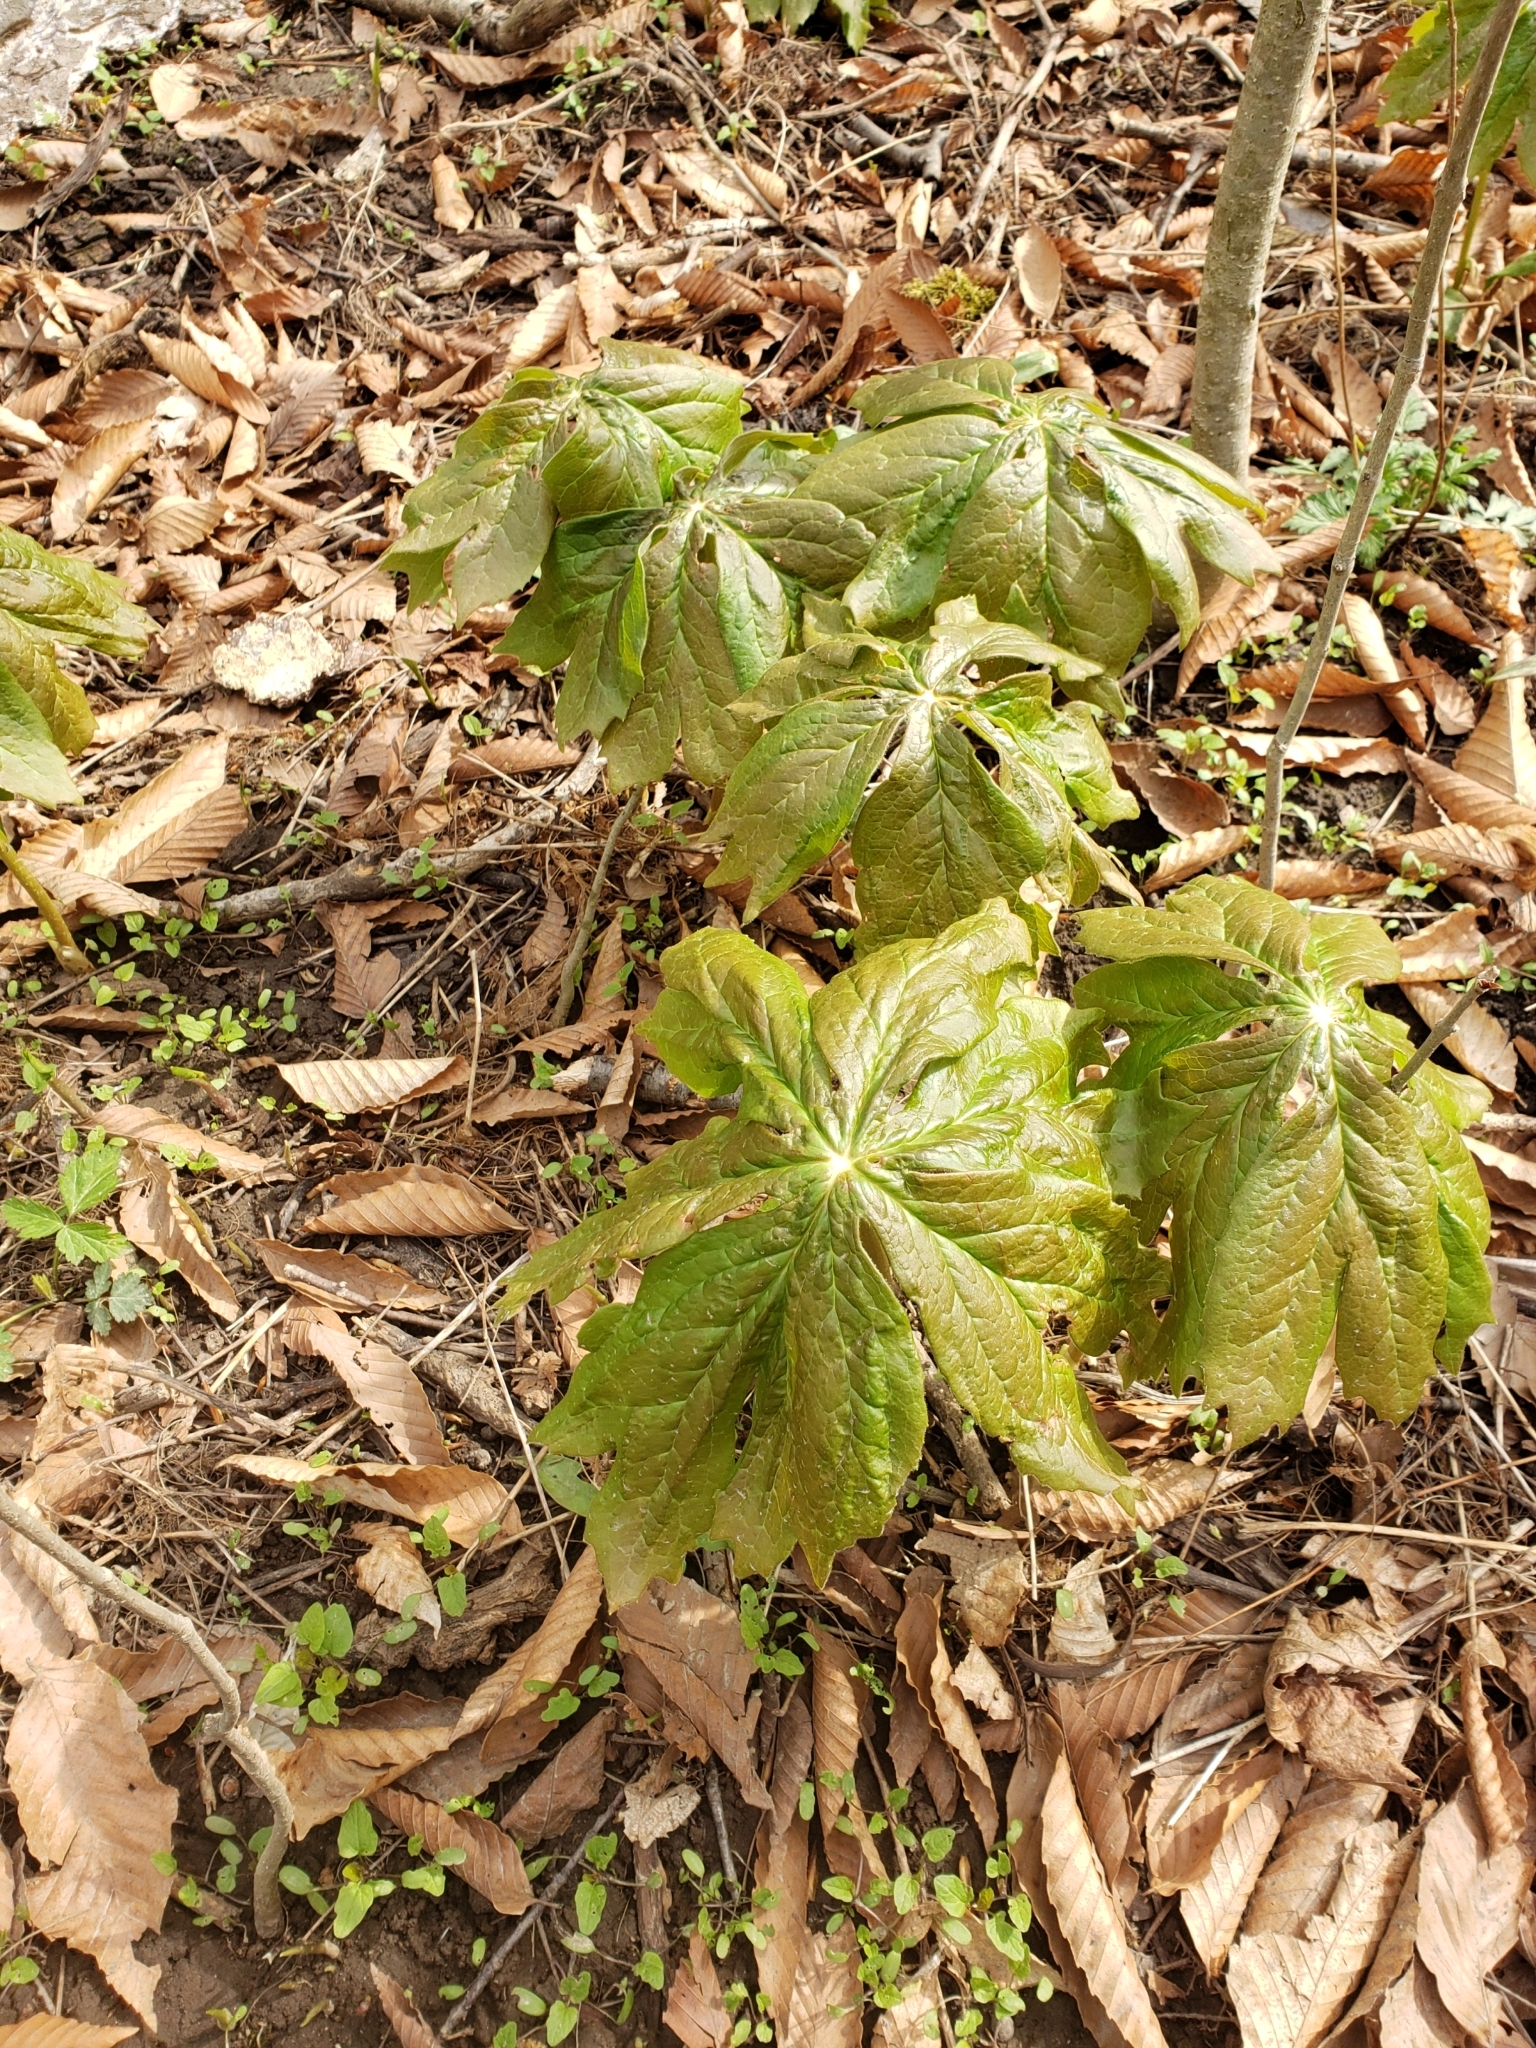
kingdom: Plantae
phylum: Tracheophyta
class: Magnoliopsida
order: Ranunculales
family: Berberidaceae
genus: Podophyllum
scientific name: Podophyllum peltatum
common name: Wild mandrake
